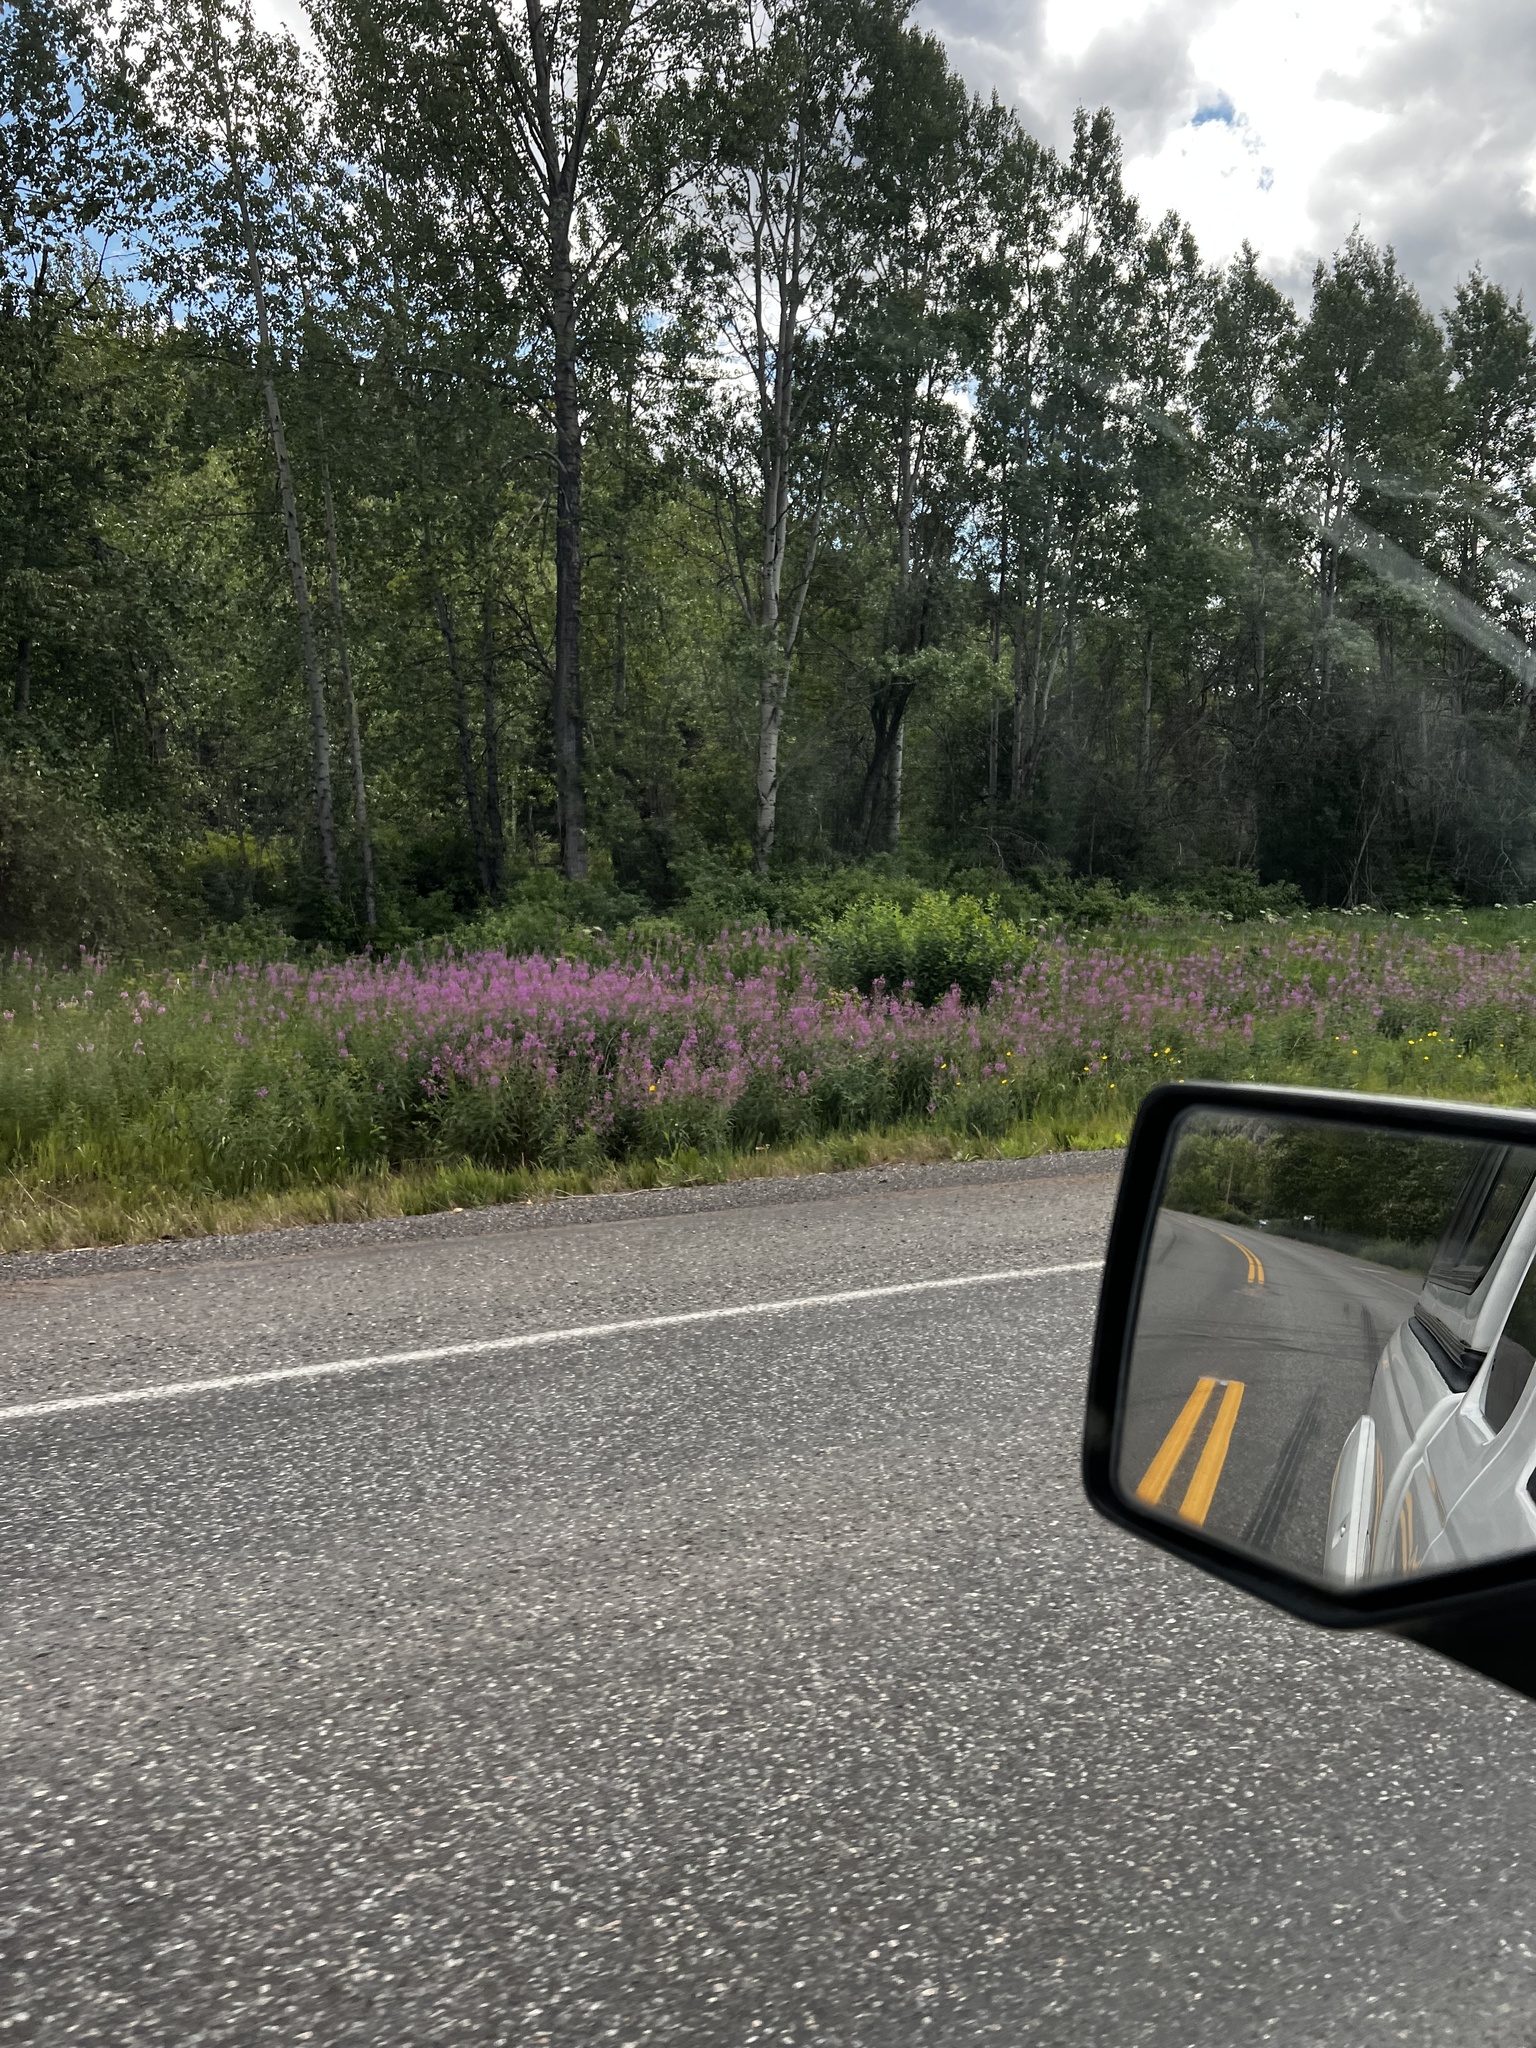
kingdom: Plantae
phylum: Tracheophyta
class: Magnoliopsida
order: Myrtales
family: Onagraceae
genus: Chamaenerion
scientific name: Chamaenerion angustifolium
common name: Fireweed
